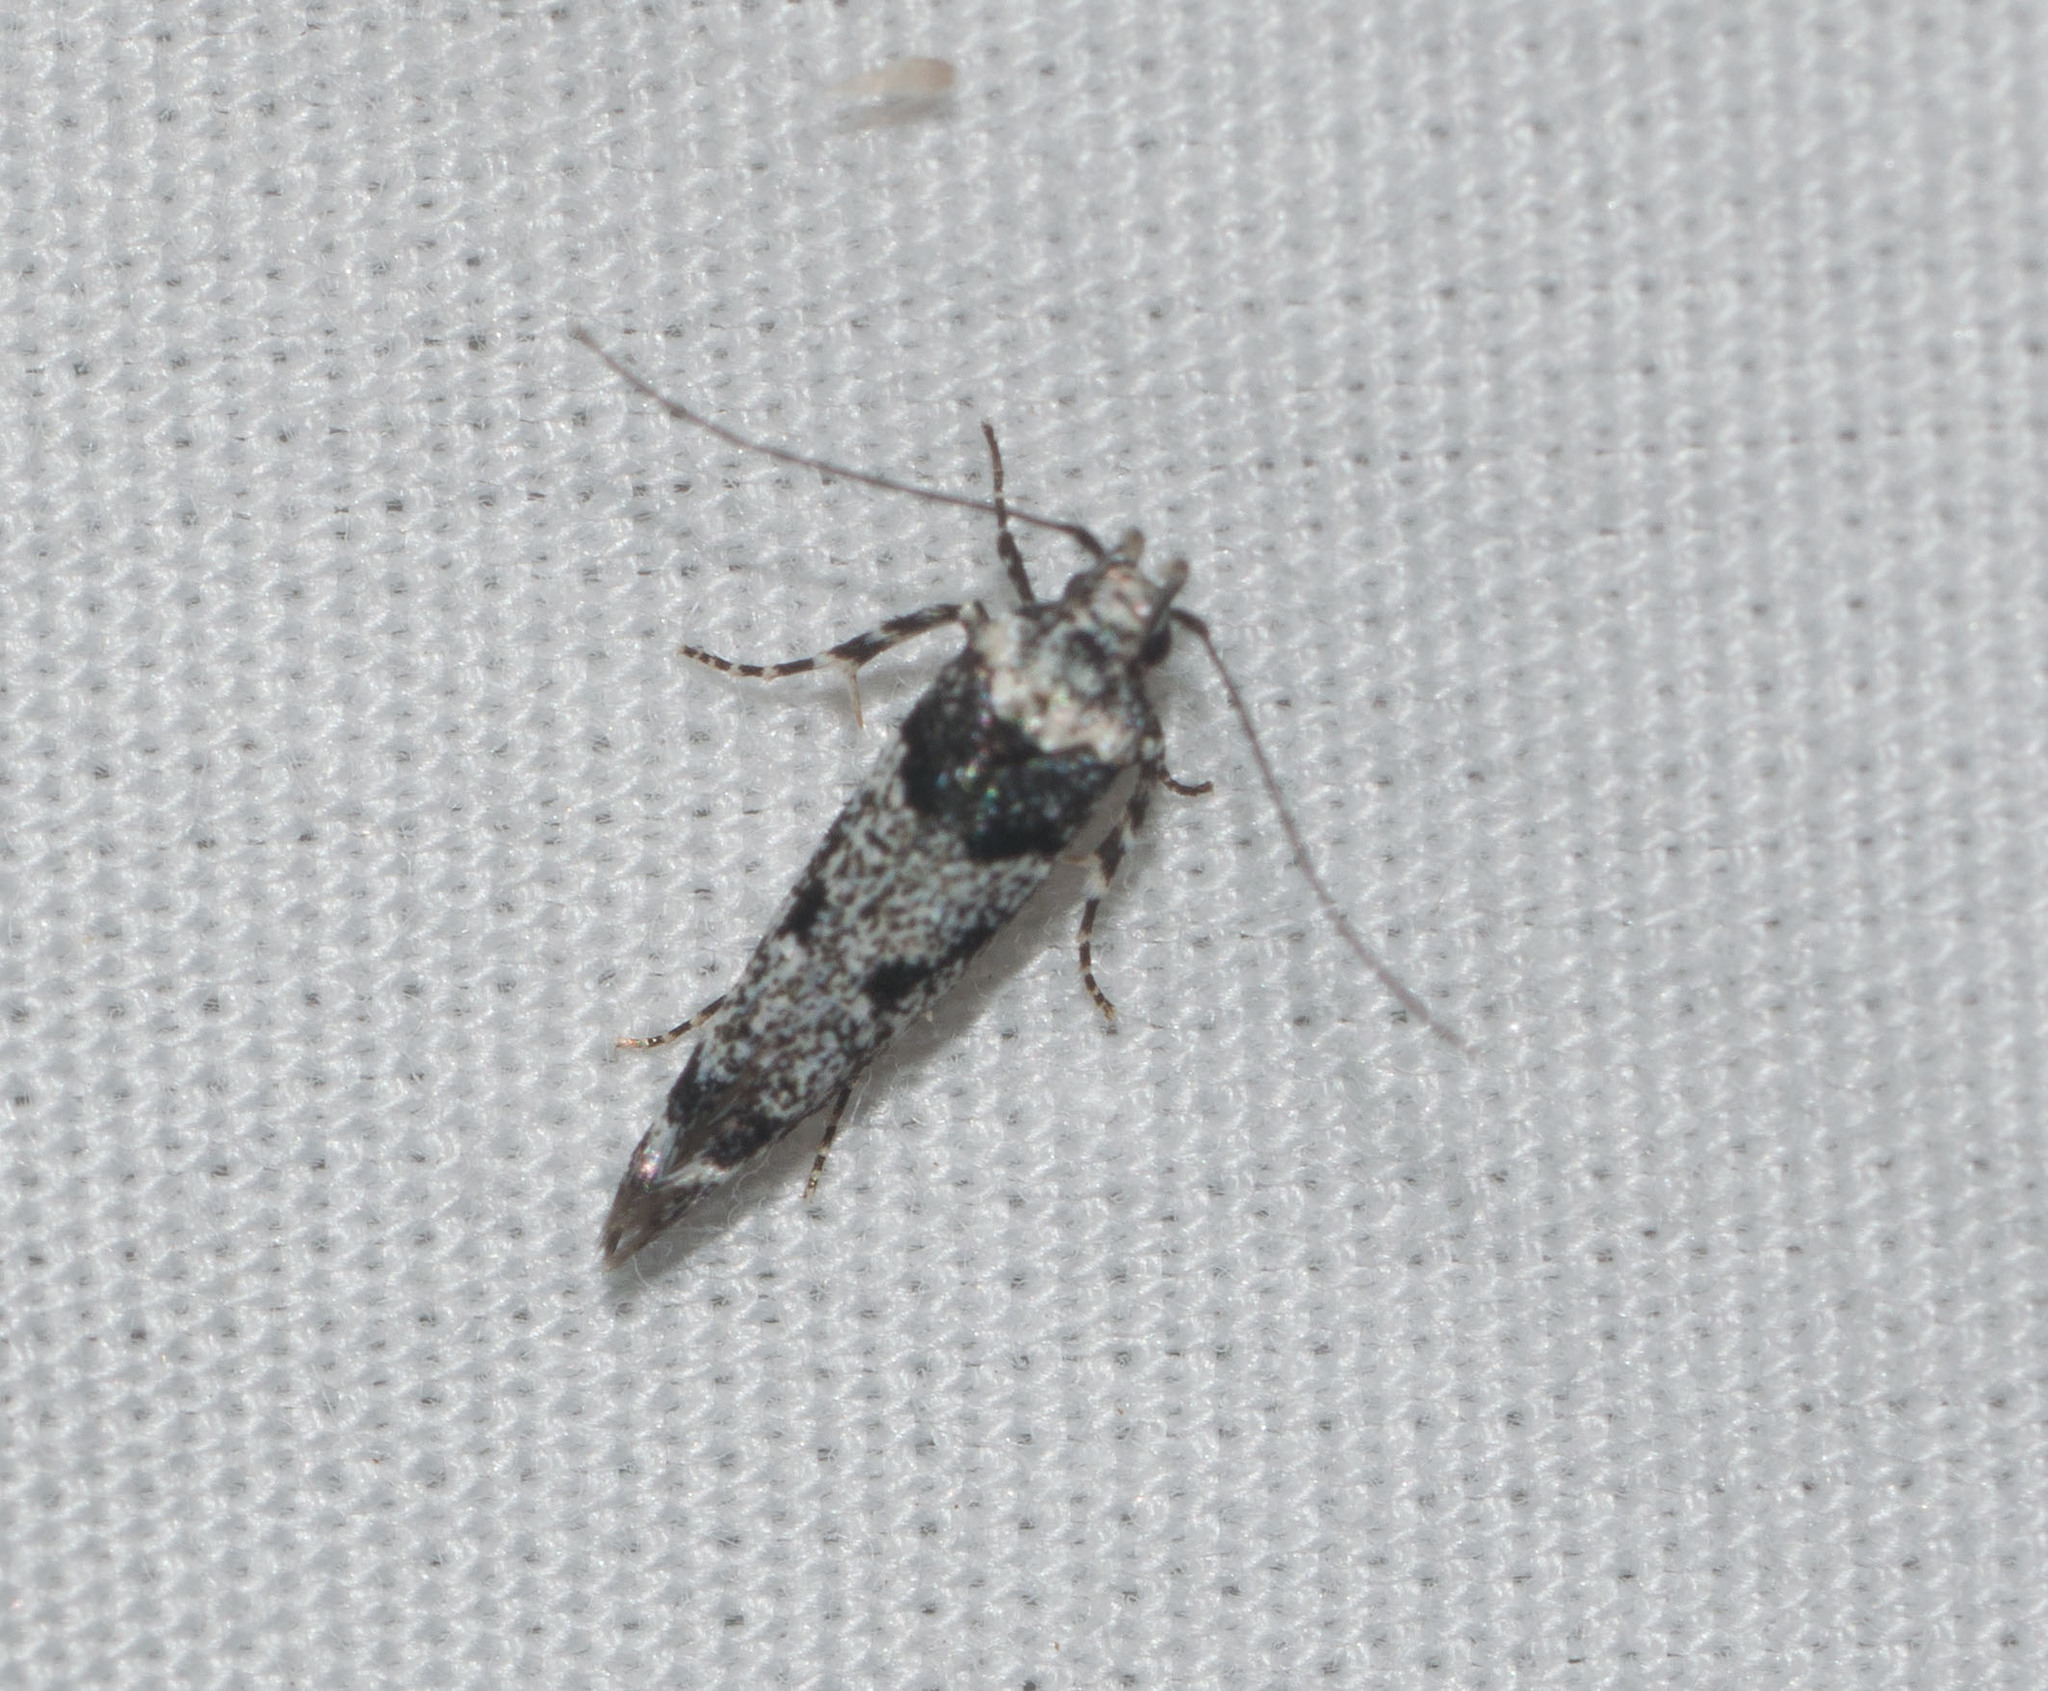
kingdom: Animalia
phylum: Arthropoda
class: Insecta
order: Lepidoptera
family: Cosmopterigidae
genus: Hyposmochoma
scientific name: Hyposmochoma empedota
